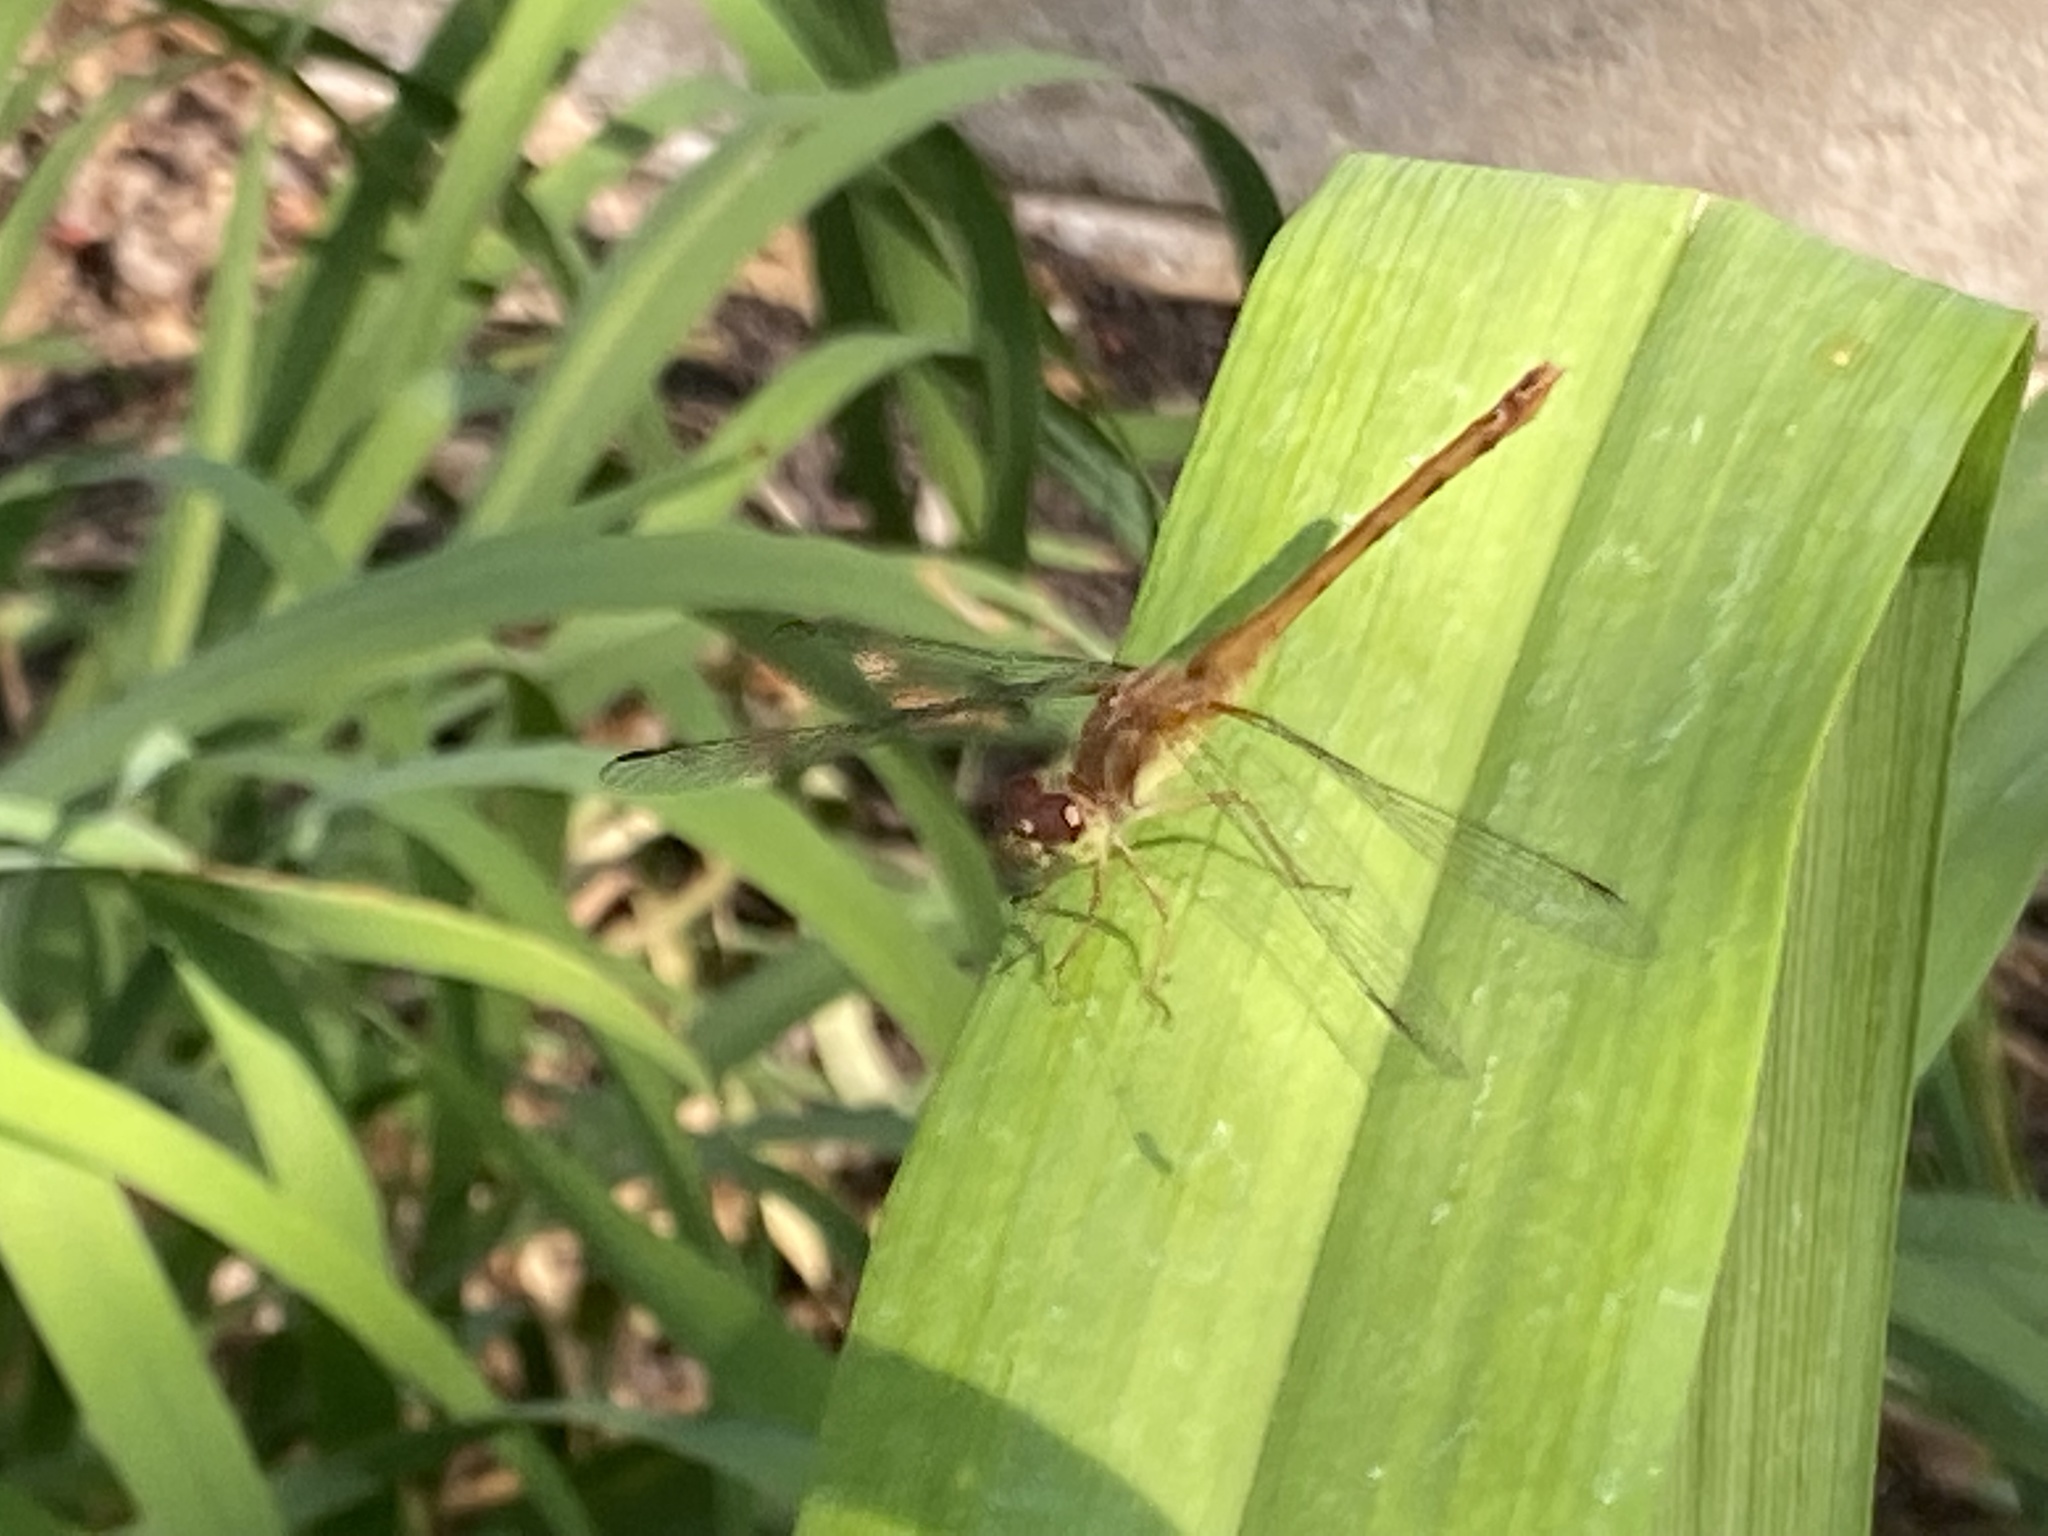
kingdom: Animalia
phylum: Arthropoda
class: Insecta
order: Odonata
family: Libellulidae
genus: Sympetrum
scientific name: Sympetrum vicinum
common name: Autumn meadowhawk
